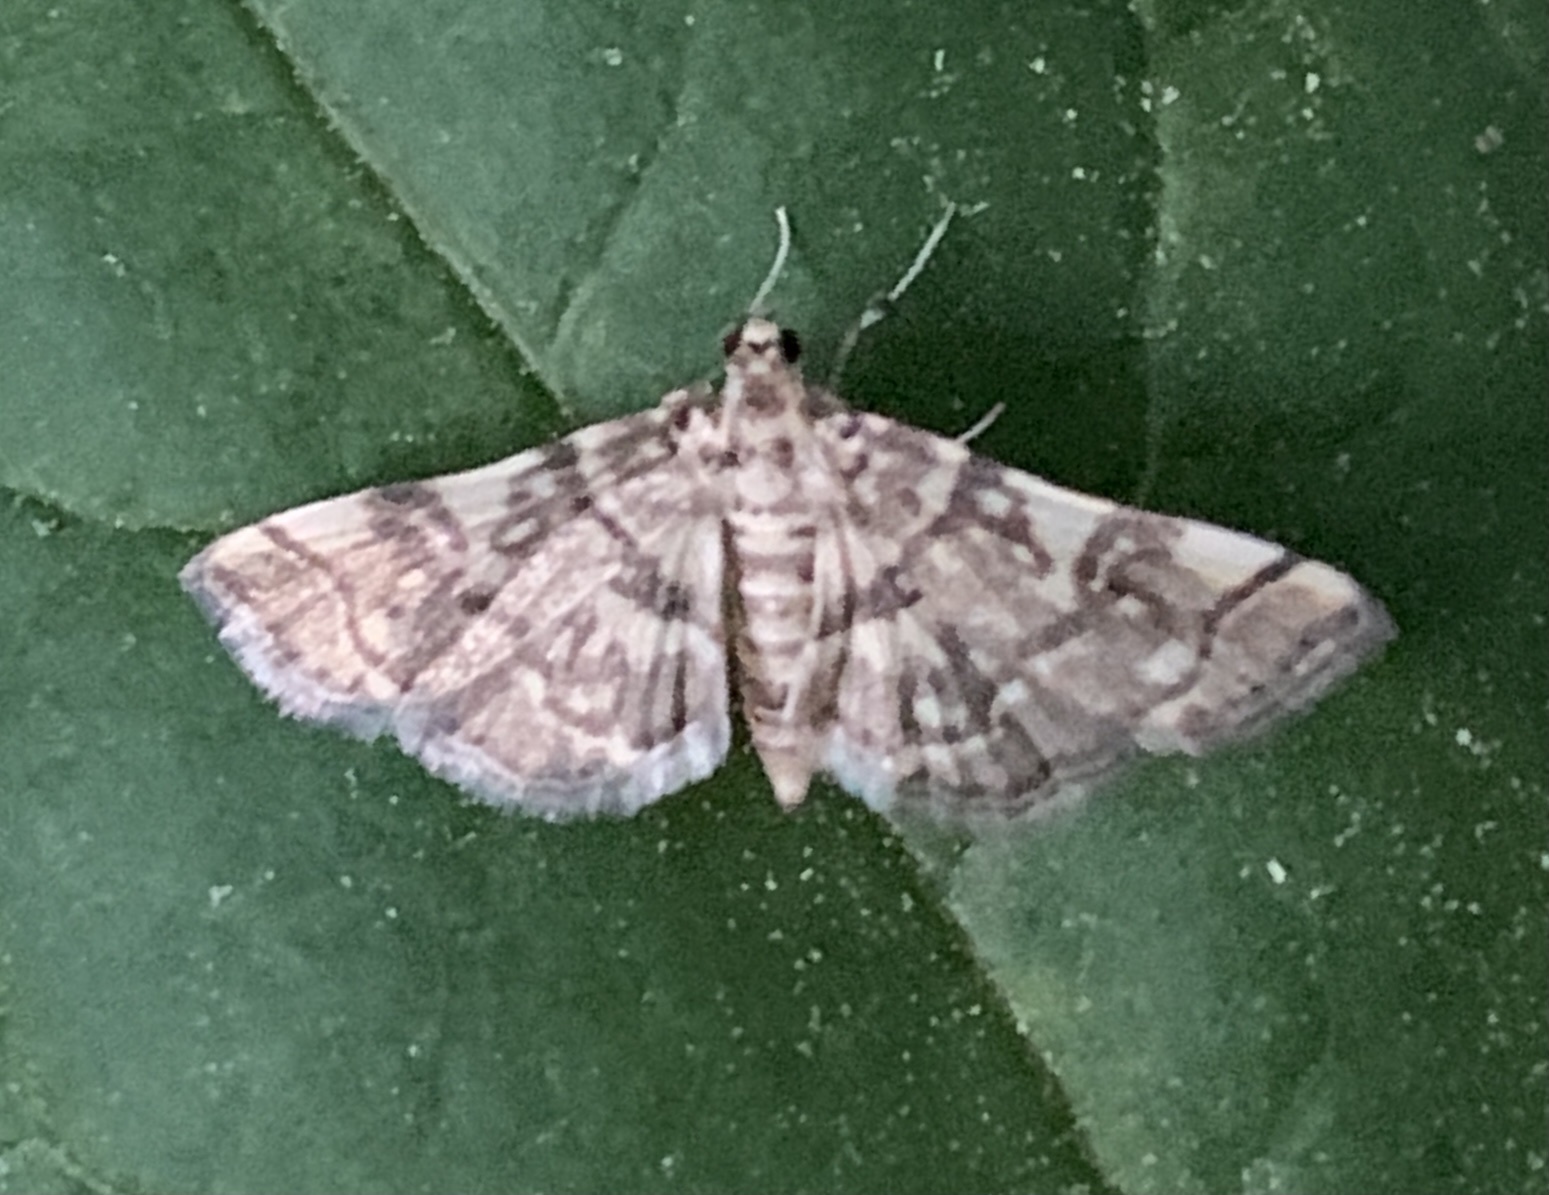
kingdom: Animalia
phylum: Arthropoda
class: Insecta
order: Lepidoptera
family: Crambidae
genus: Apogeshna
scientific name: Apogeshna stenialis
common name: Checkered apogeshna moth
